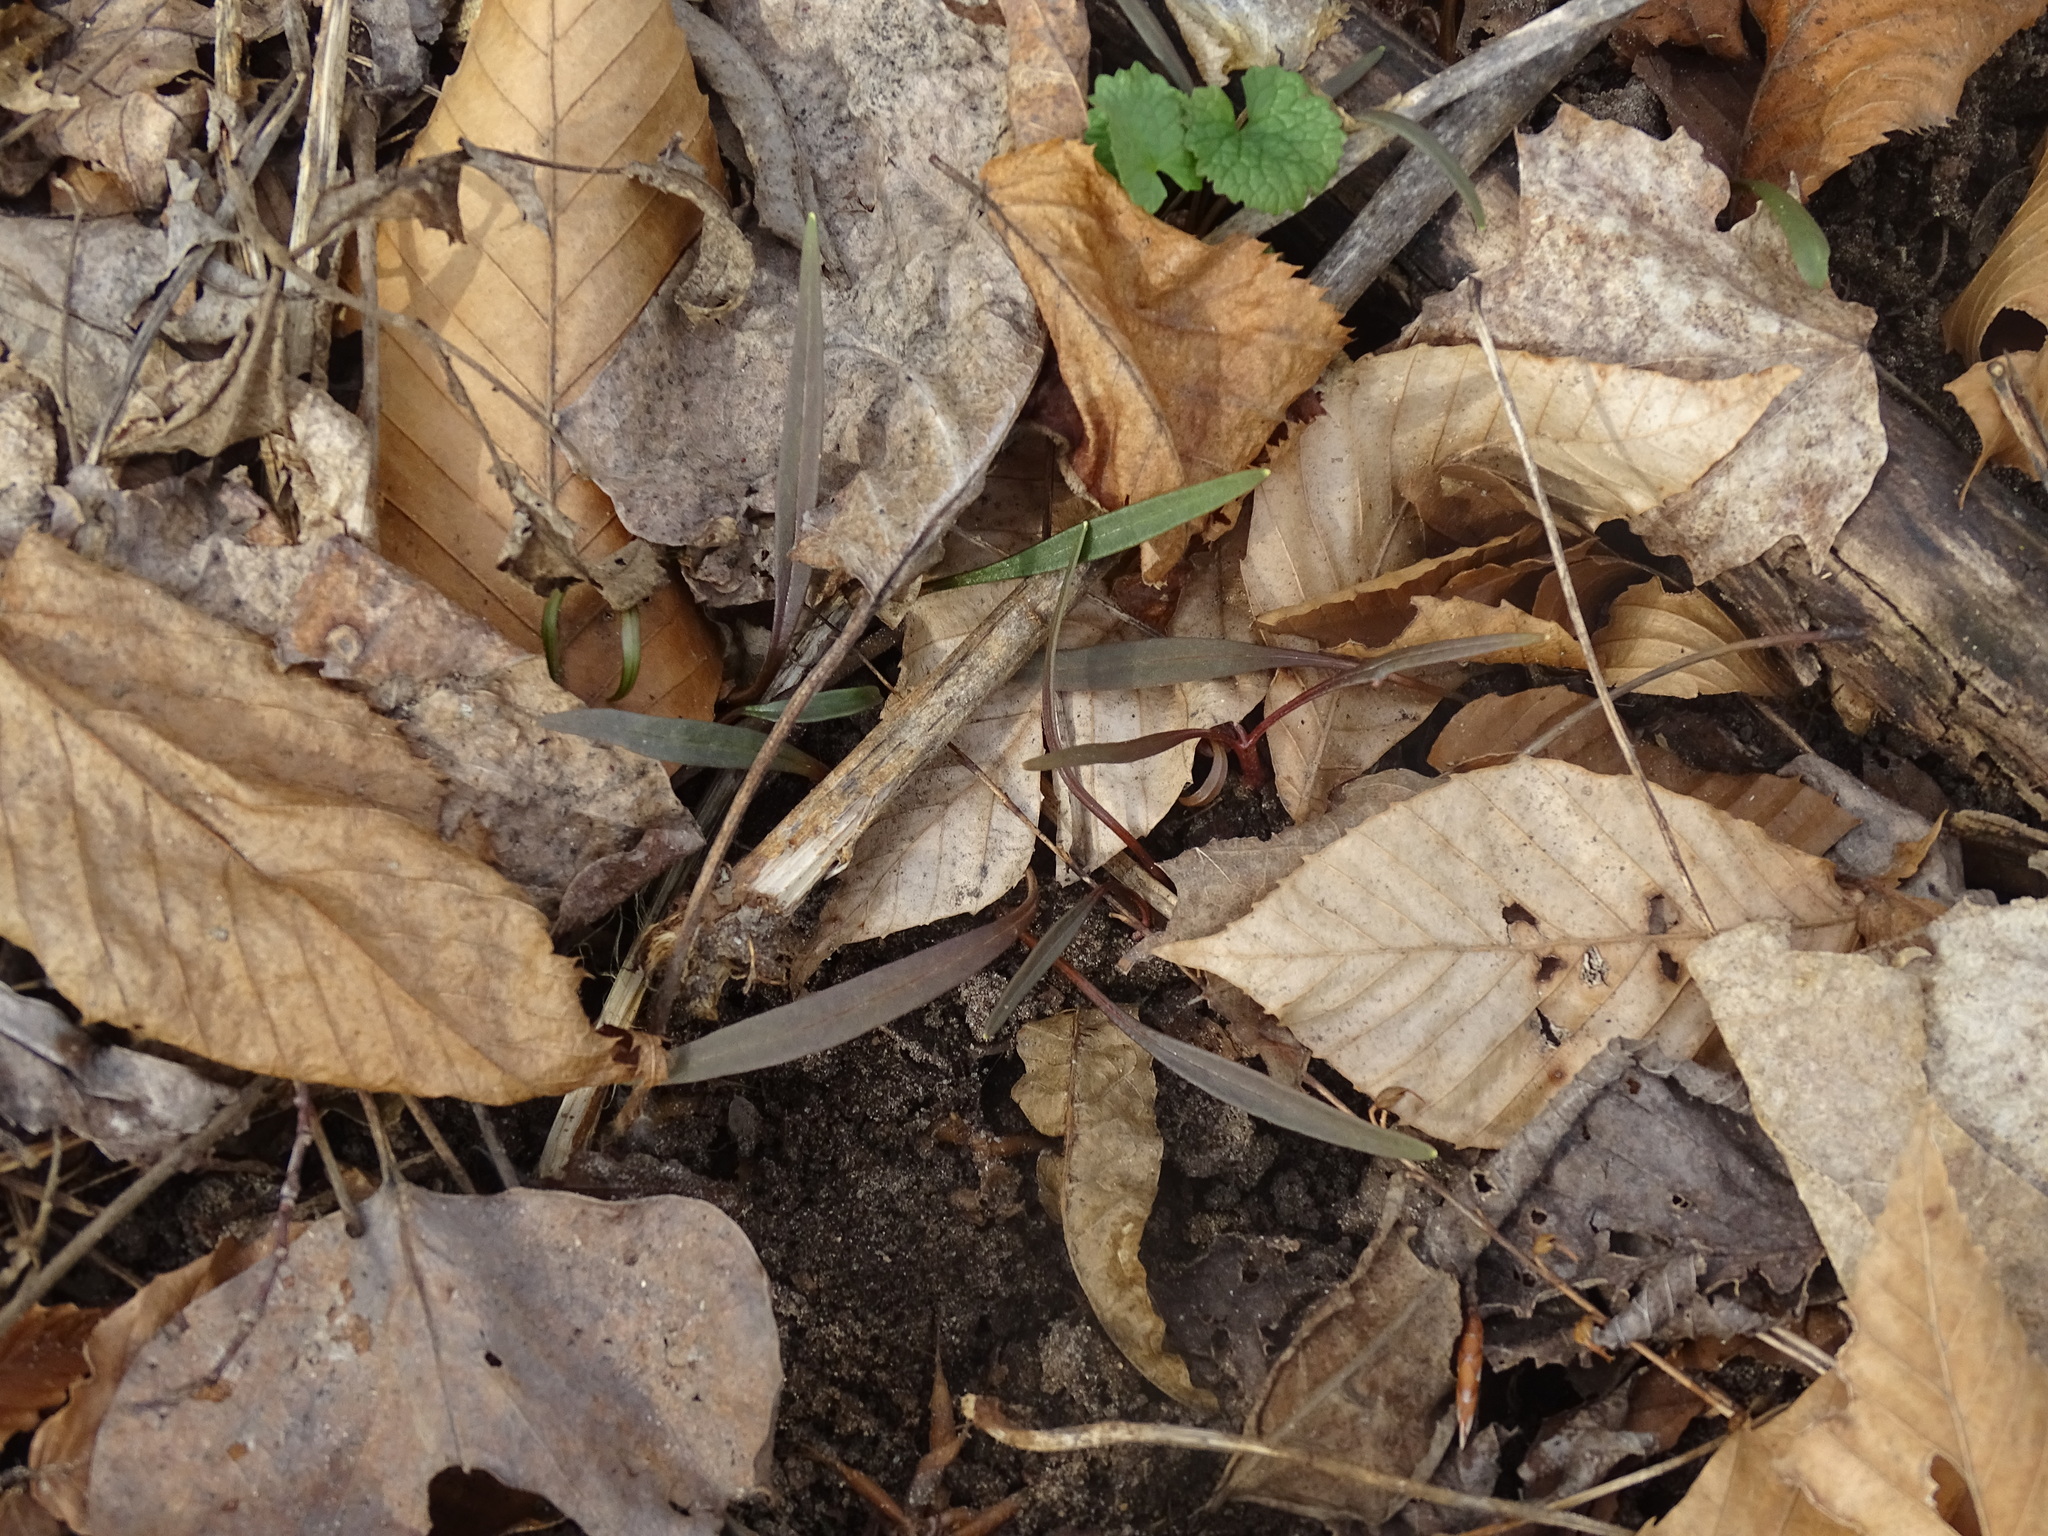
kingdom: Plantae
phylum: Tracheophyta
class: Magnoliopsida
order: Caryophyllales
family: Montiaceae
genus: Claytonia
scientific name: Claytonia virginica
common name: Virginia springbeauty
